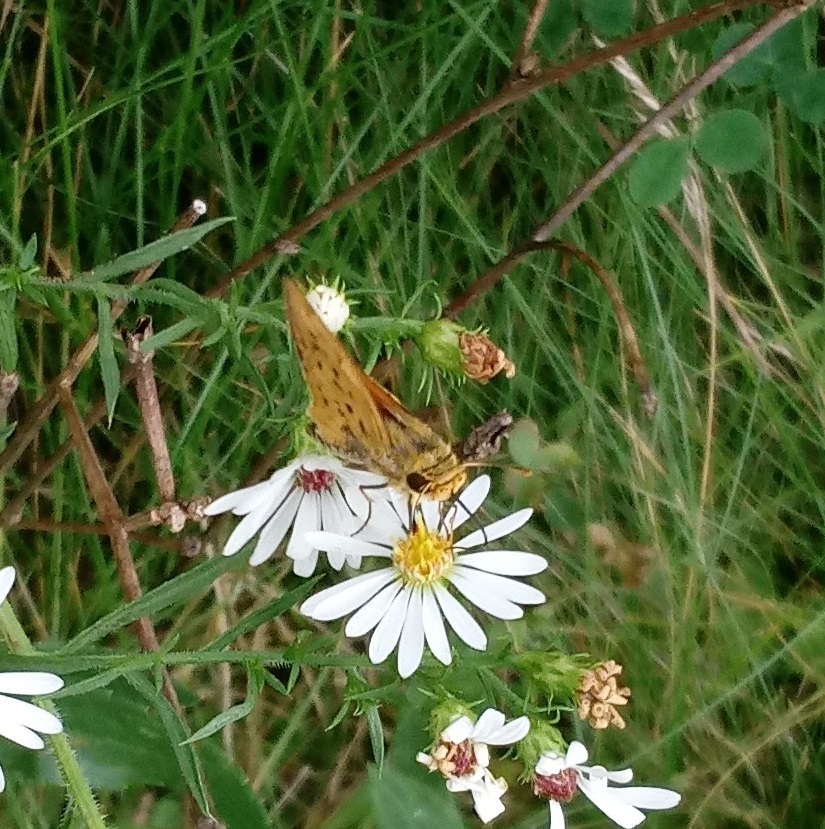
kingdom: Animalia
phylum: Arthropoda
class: Insecta
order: Lepidoptera
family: Hesperiidae
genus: Hylephila
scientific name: Hylephila phyleus
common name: Fiery skipper
